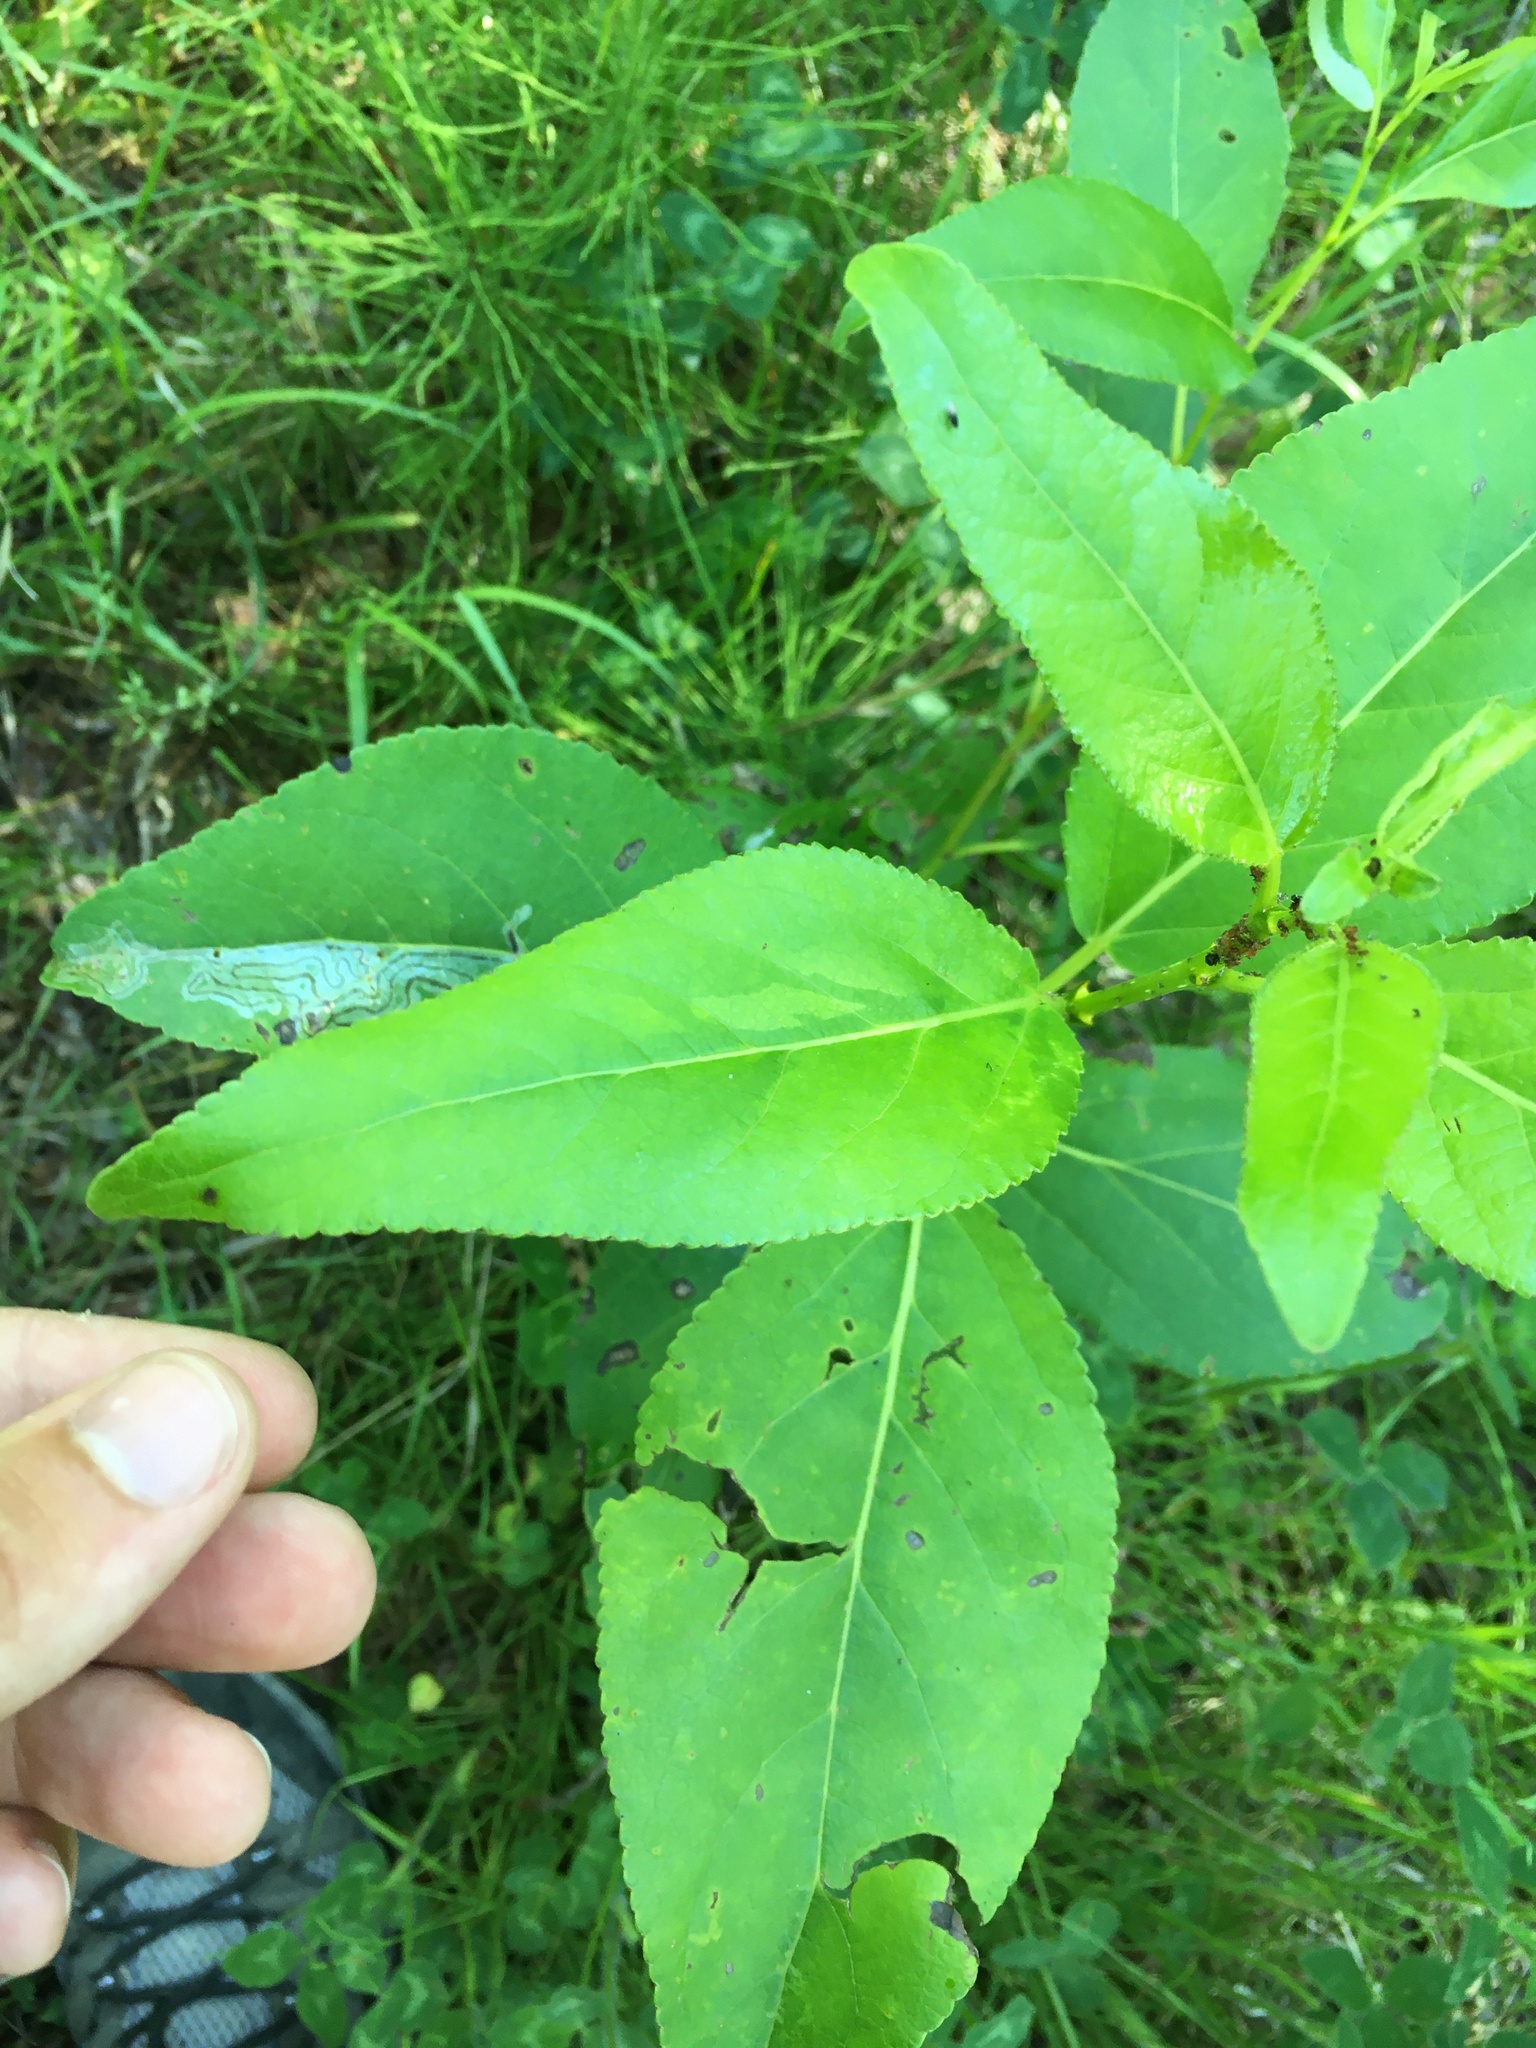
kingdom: Plantae
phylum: Tracheophyta
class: Magnoliopsida
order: Malpighiales
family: Salicaceae
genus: Populus
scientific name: Populus balsamifera
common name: Balsam poplar
